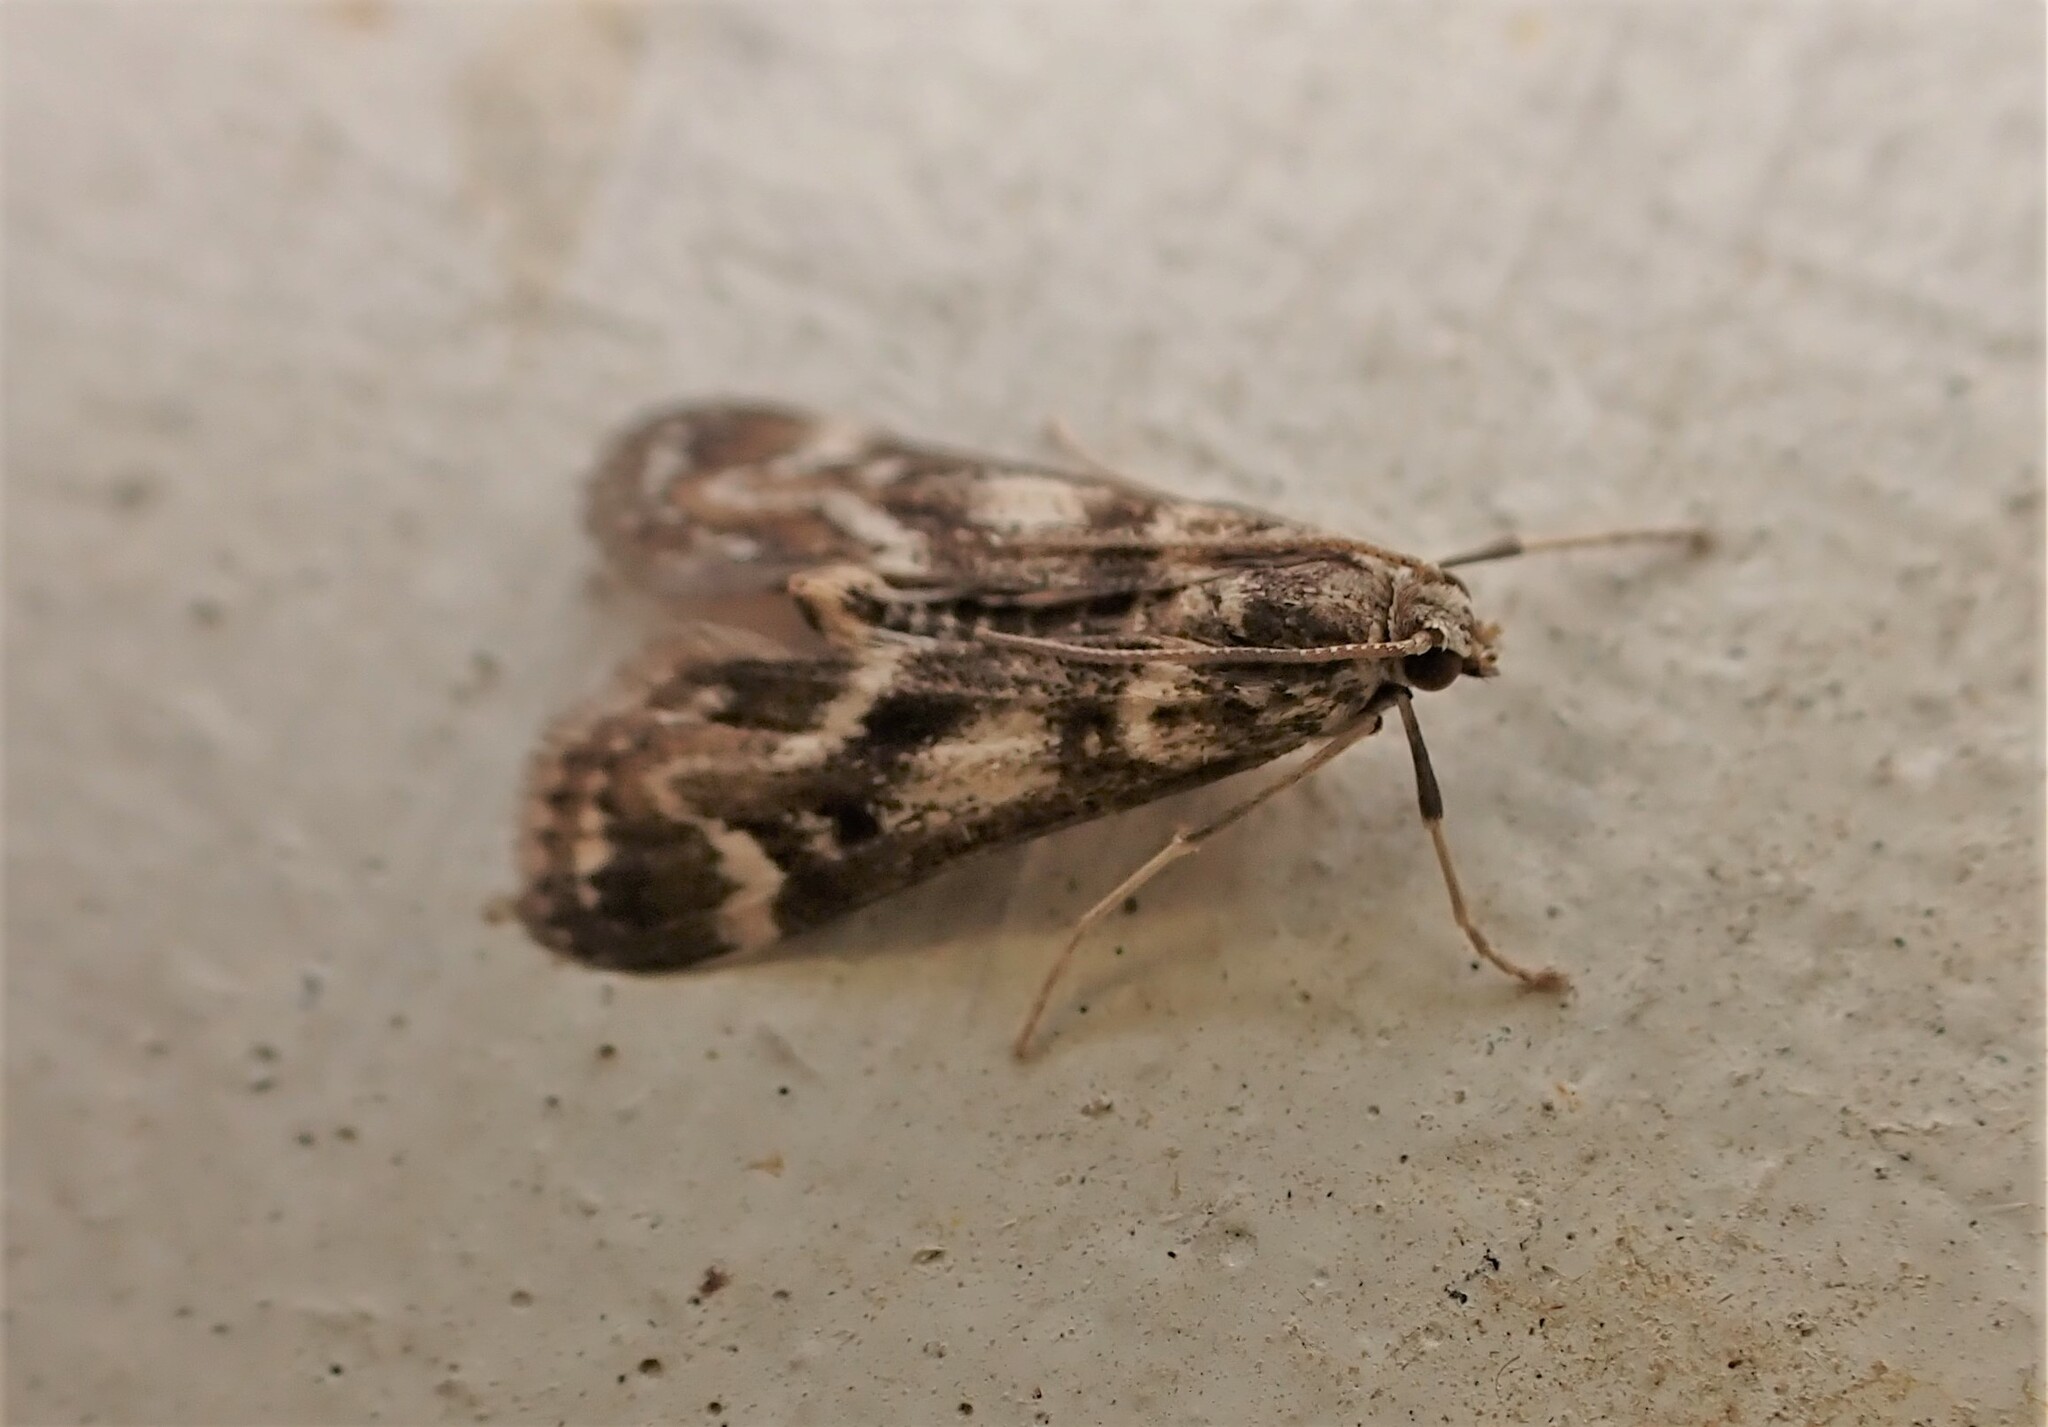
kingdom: Animalia
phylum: Arthropoda
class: Insecta
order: Lepidoptera
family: Crambidae
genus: Hygraula
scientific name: Hygraula nitens
